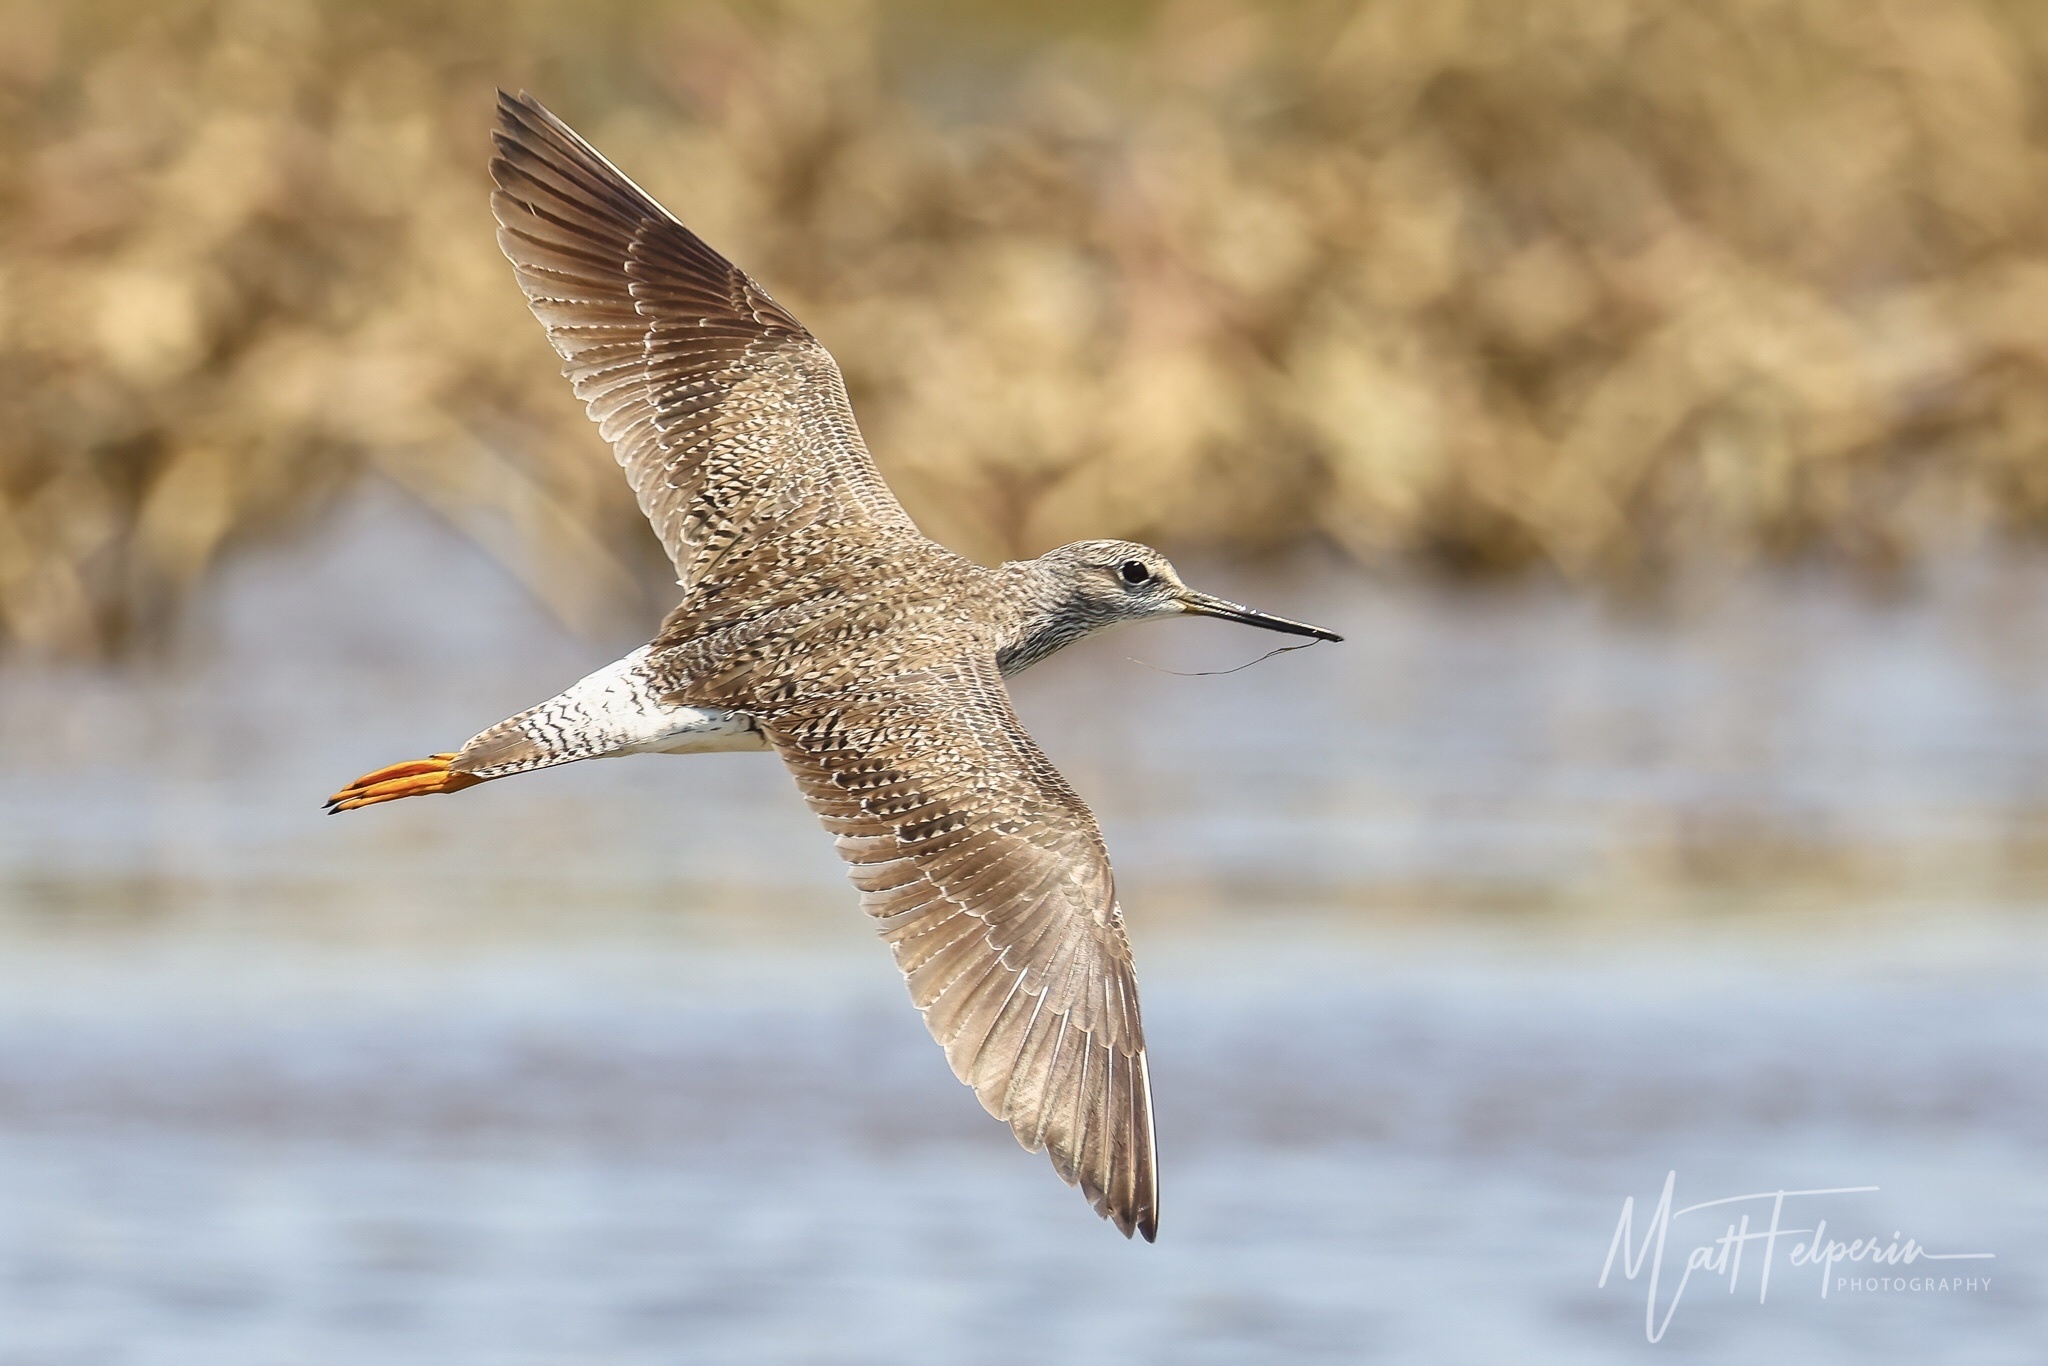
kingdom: Animalia
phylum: Chordata
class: Aves
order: Charadriiformes
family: Scolopacidae
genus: Tringa
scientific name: Tringa melanoleuca
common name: Greater yellowlegs
